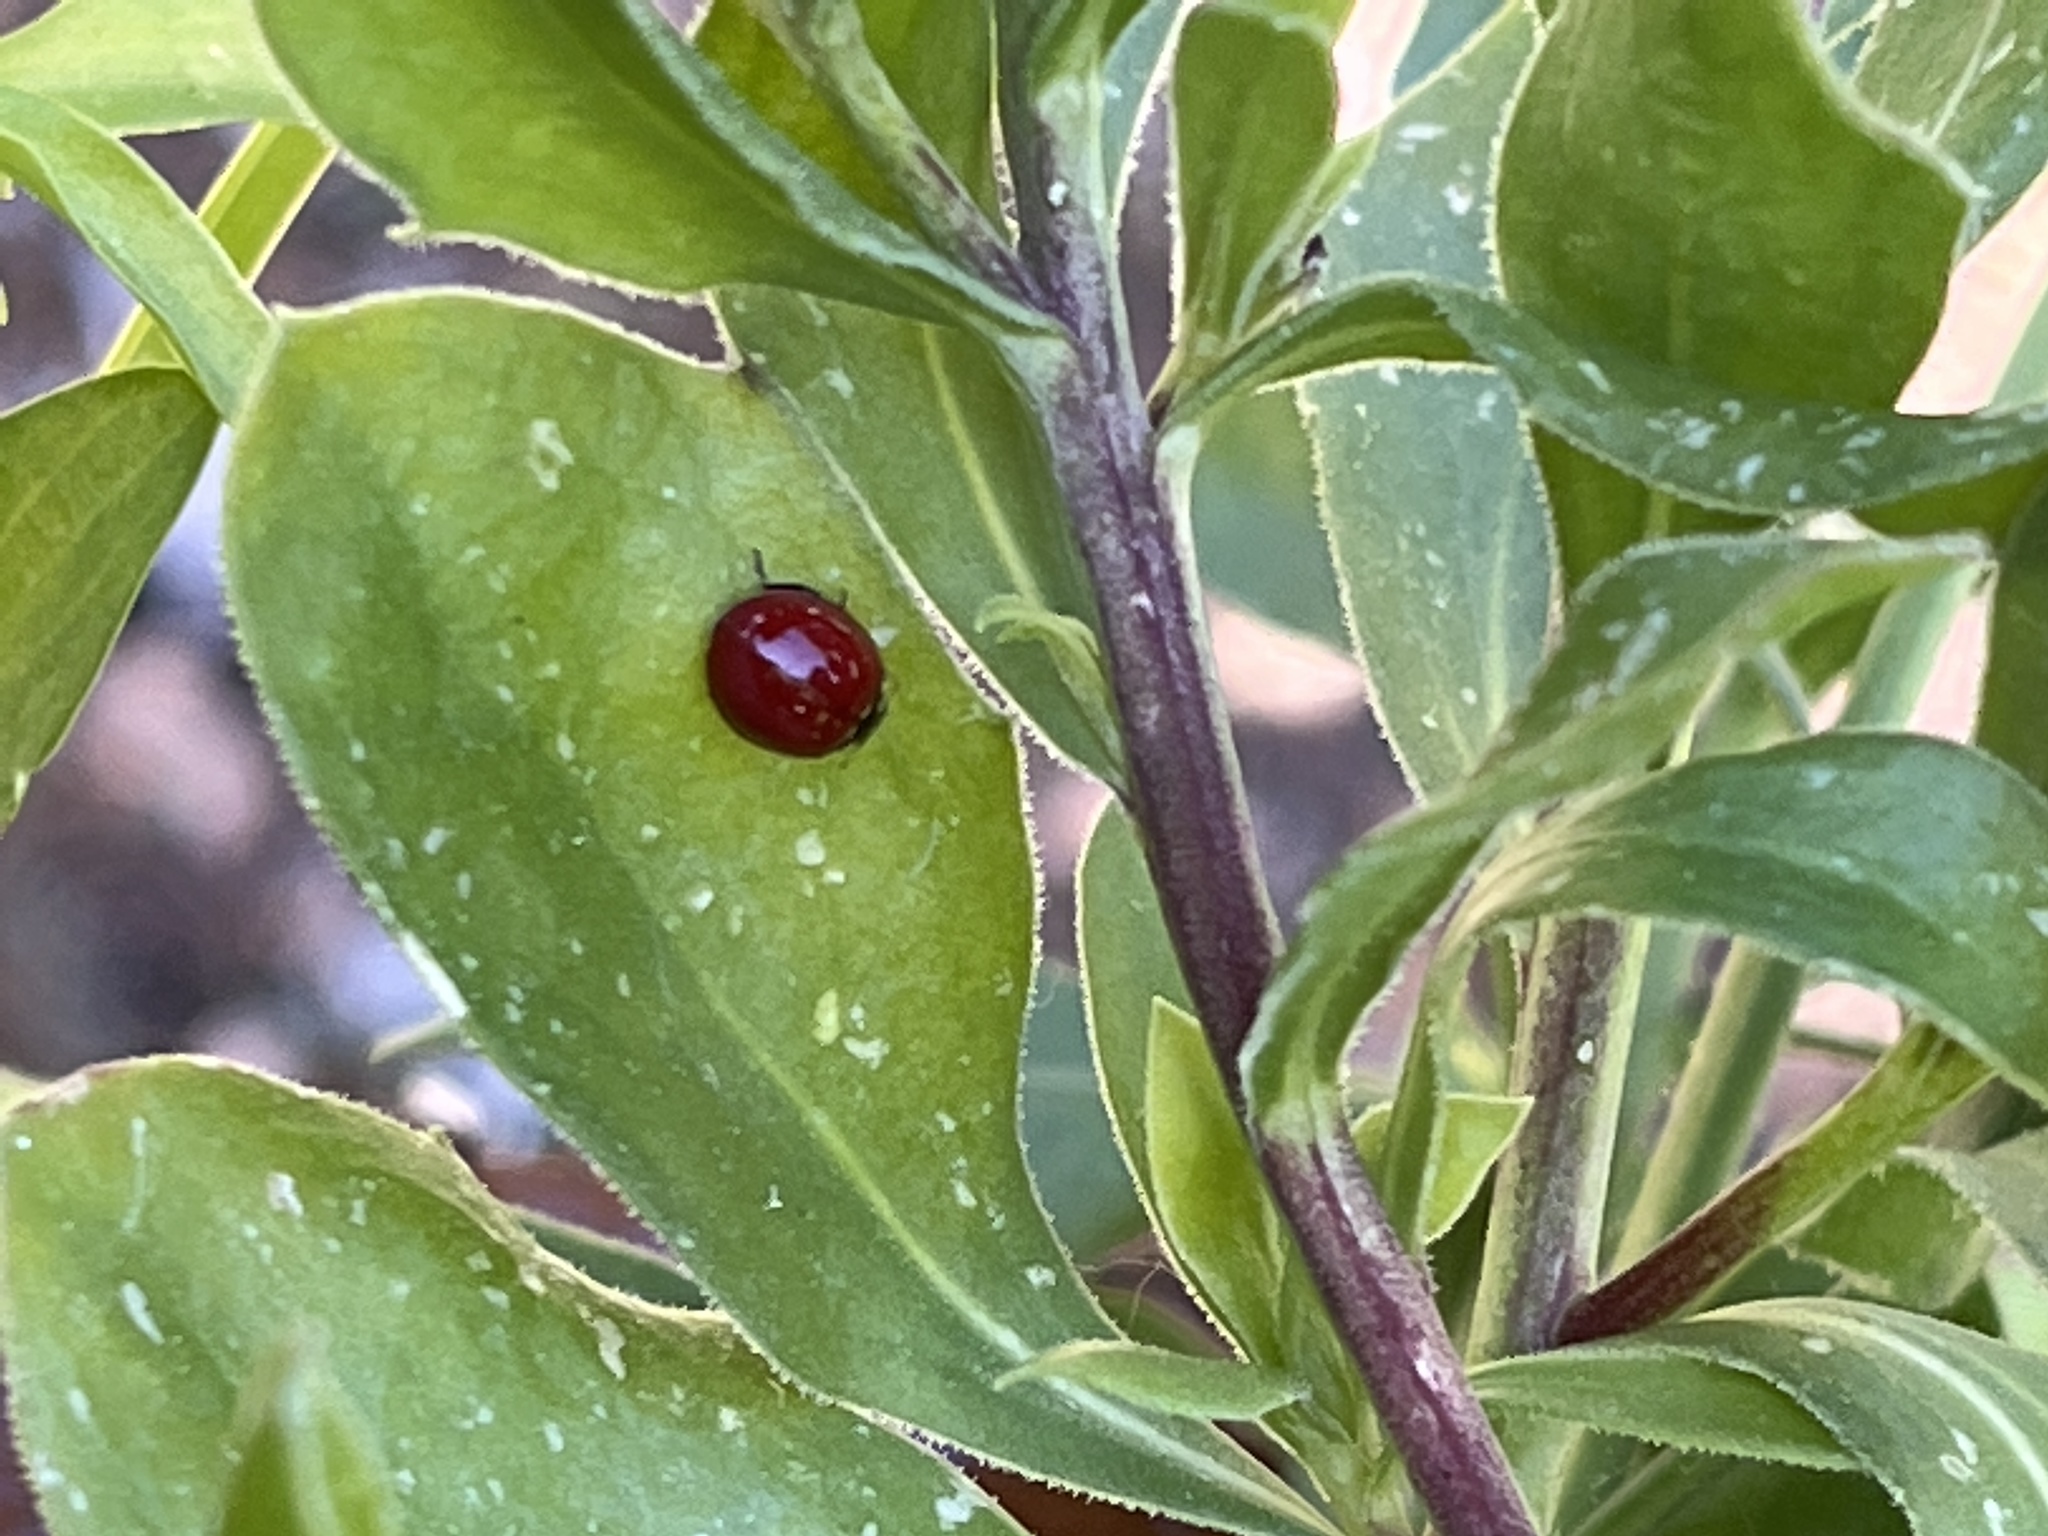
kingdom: Animalia
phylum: Arthropoda
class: Insecta
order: Coleoptera
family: Coccinellidae
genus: Cycloneda
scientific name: Cycloneda
